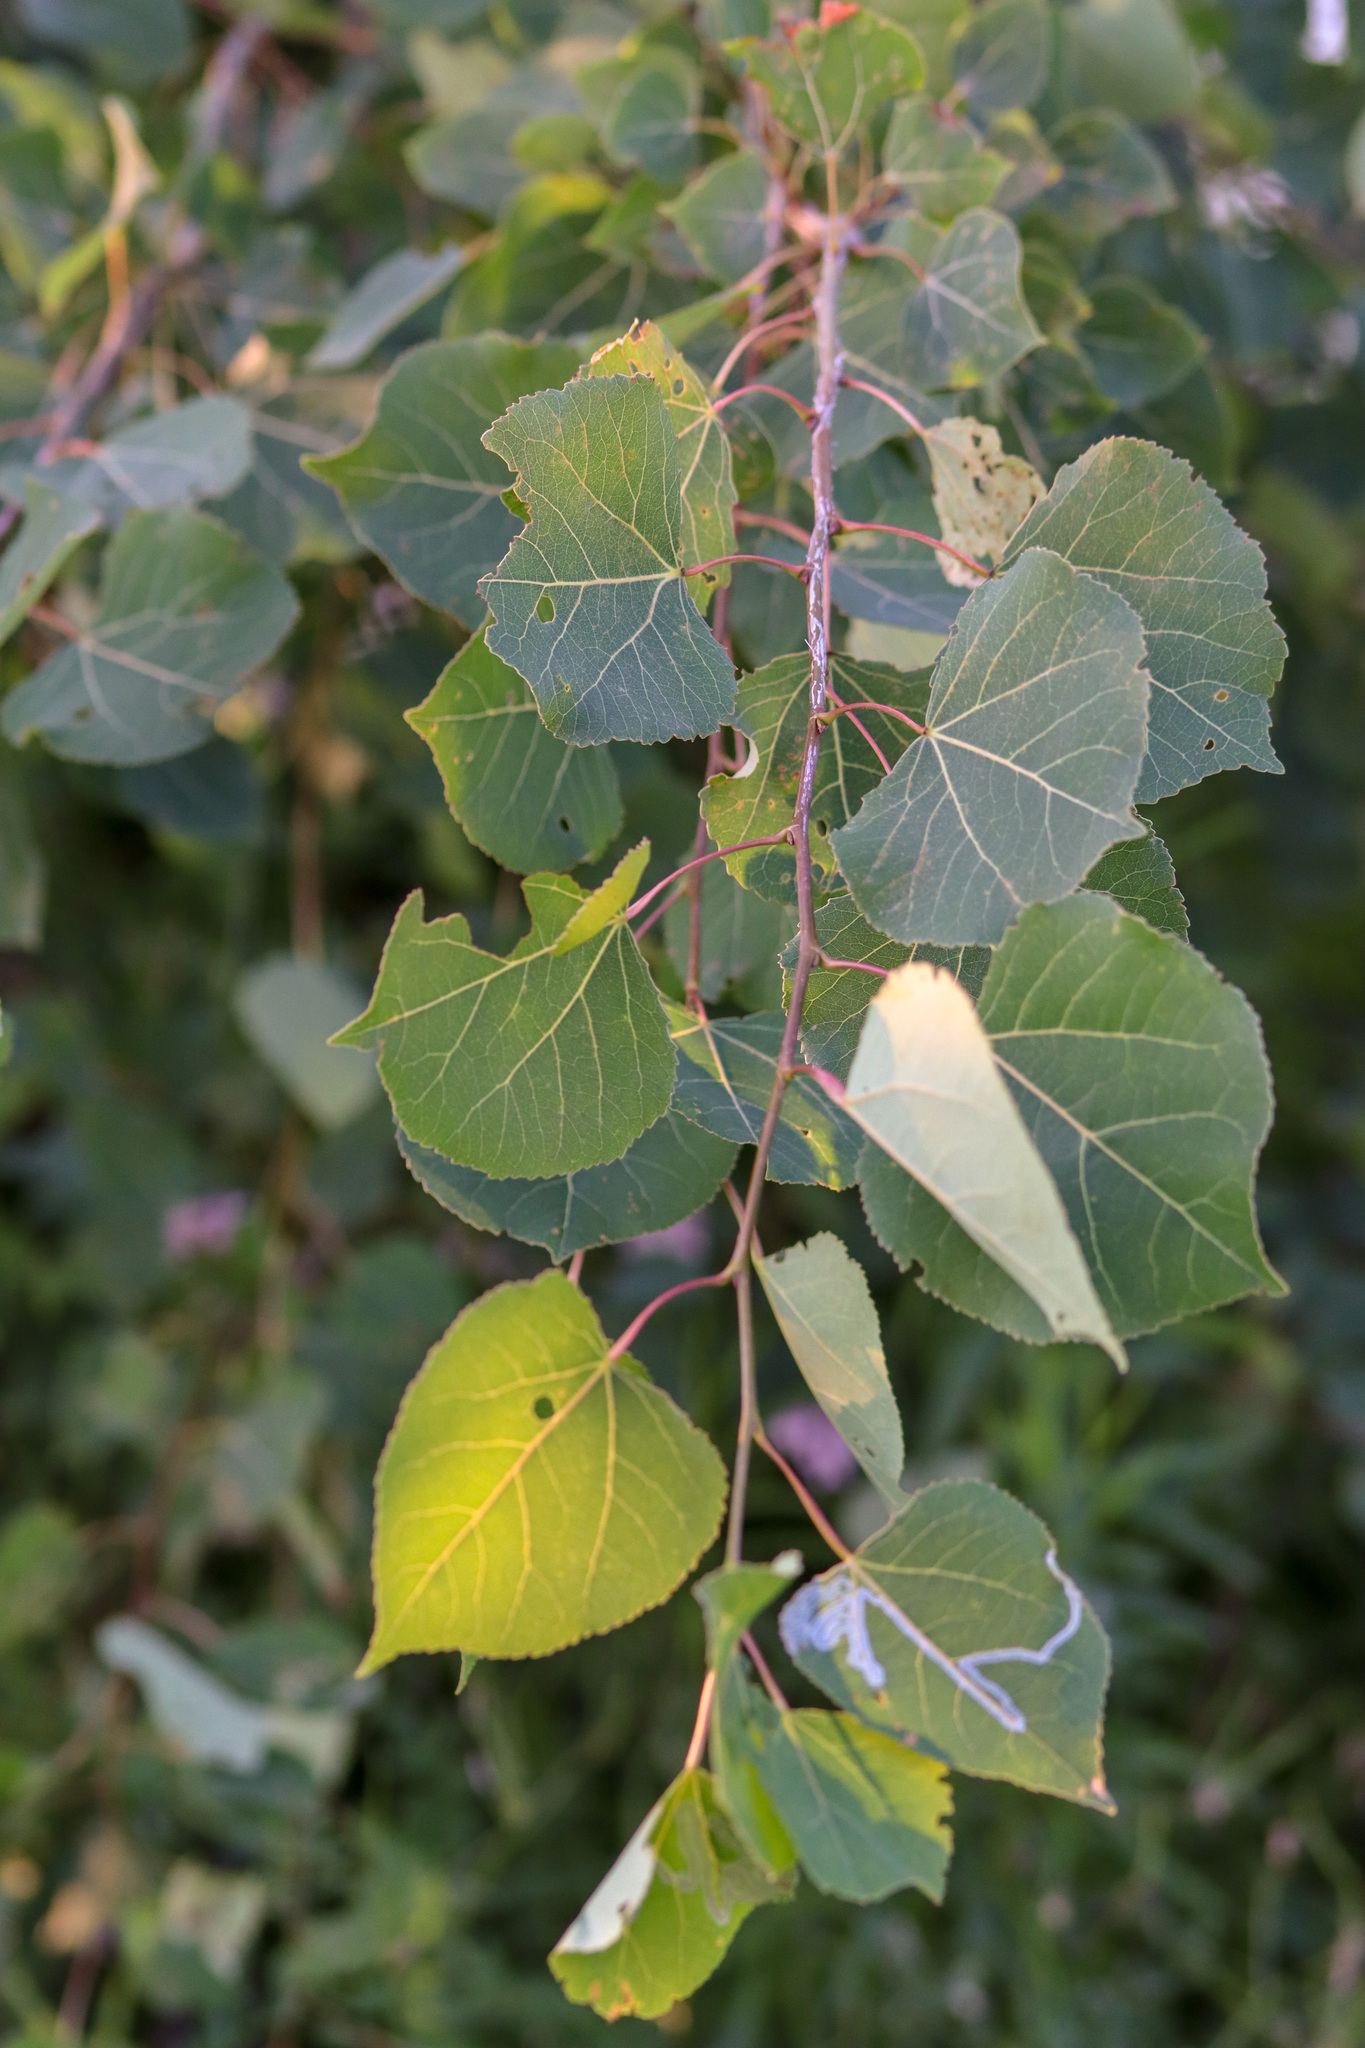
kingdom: Plantae
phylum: Tracheophyta
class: Magnoliopsida
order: Malpighiales
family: Salicaceae
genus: Populus
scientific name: Populus tremuloides
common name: Quaking aspen
